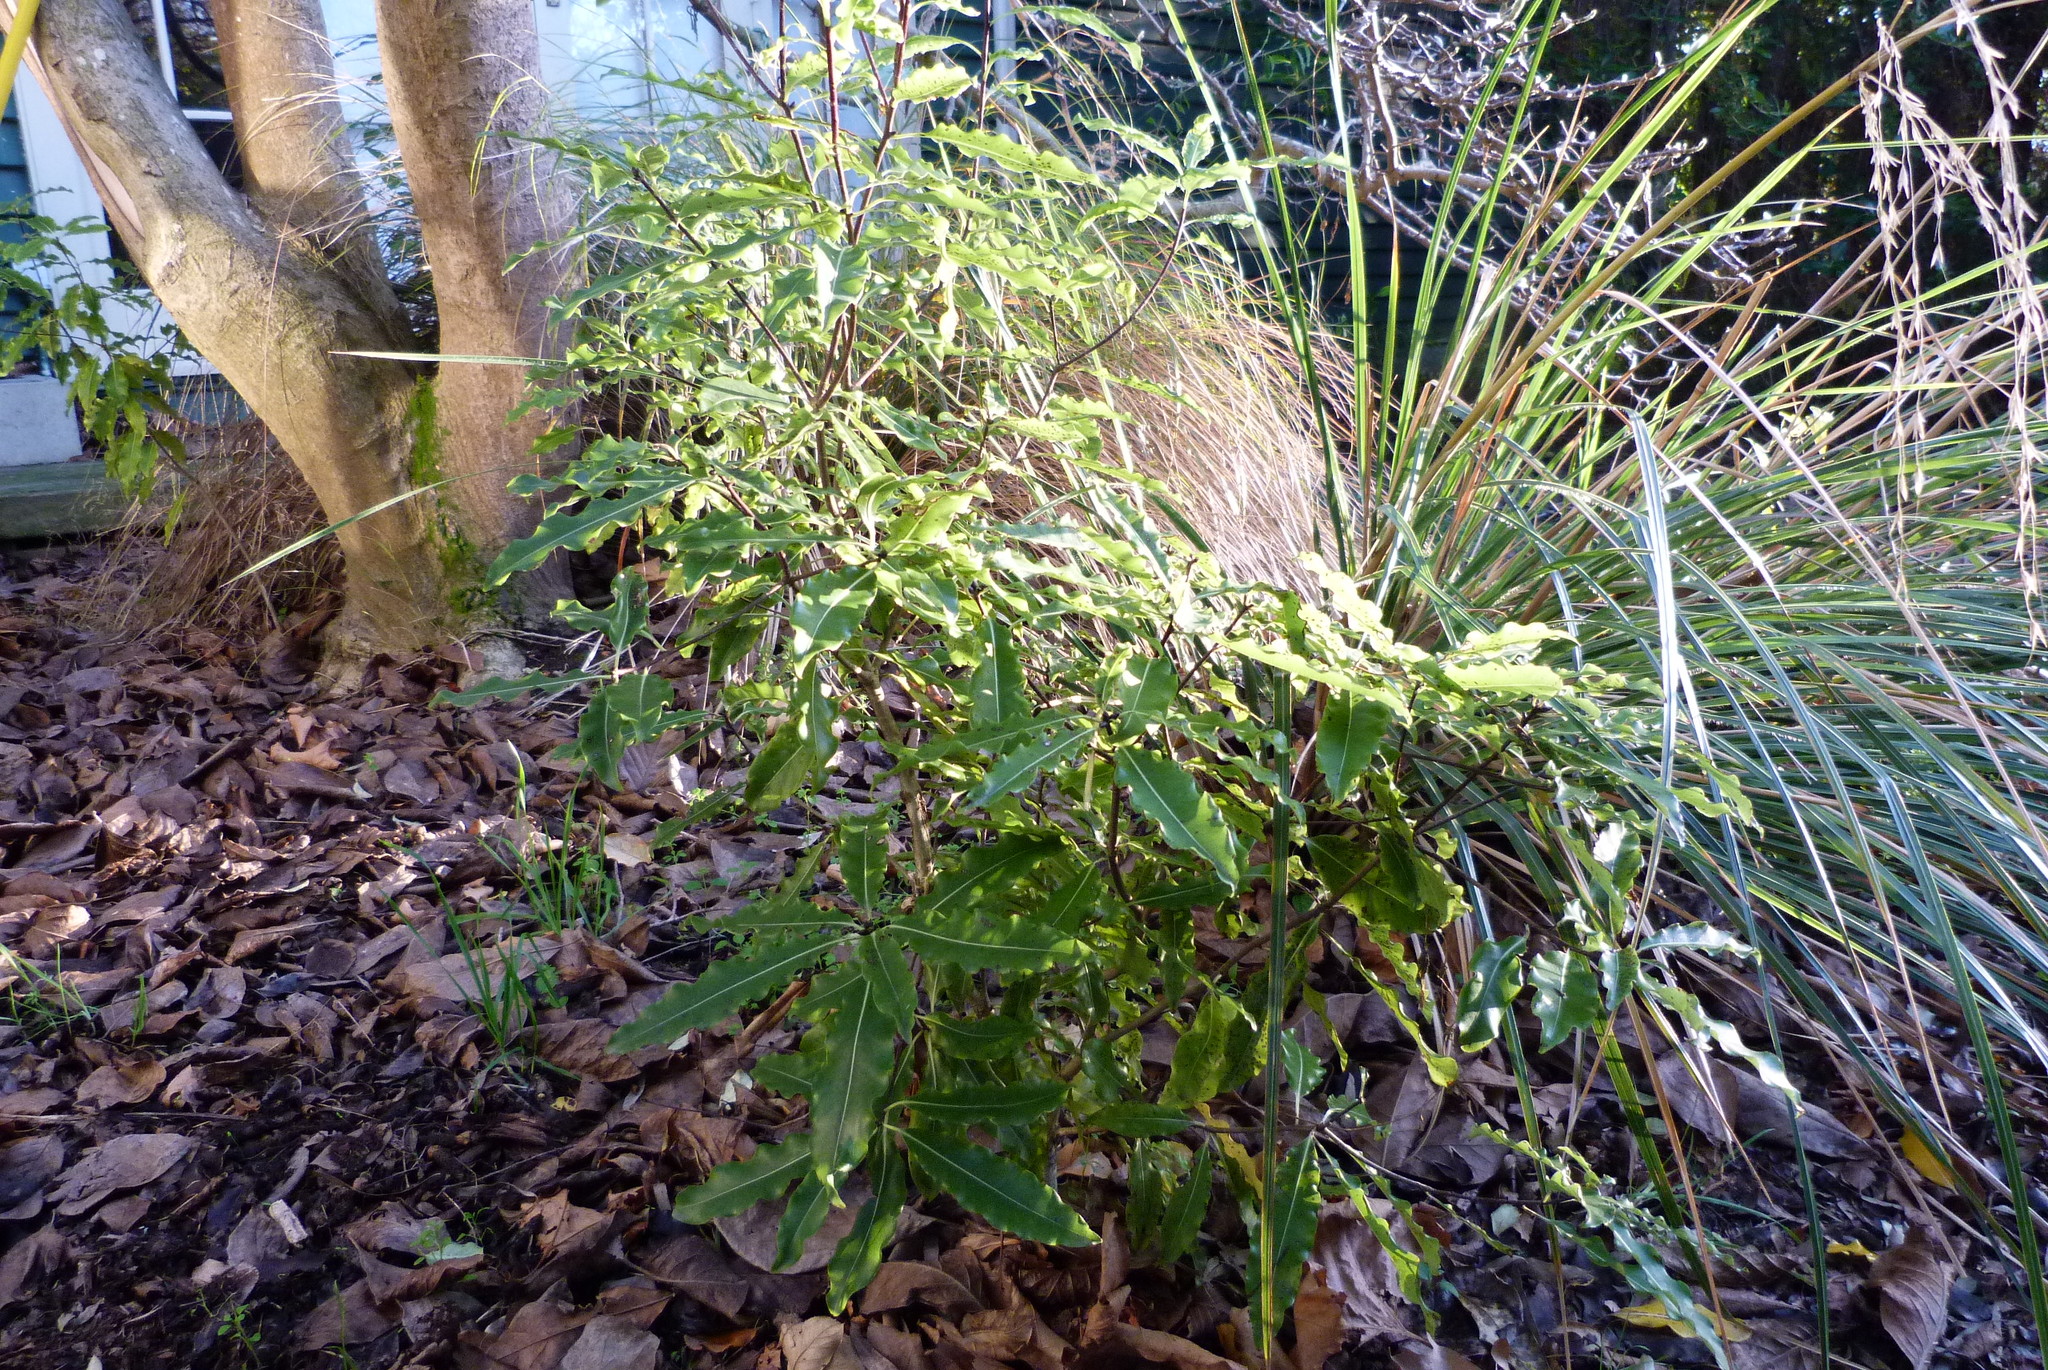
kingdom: Plantae
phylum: Tracheophyta
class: Magnoliopsida
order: Apiales
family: Pittosporaceae
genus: Pittosporum
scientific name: Pittosporum eugenioides
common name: Lemonwood
